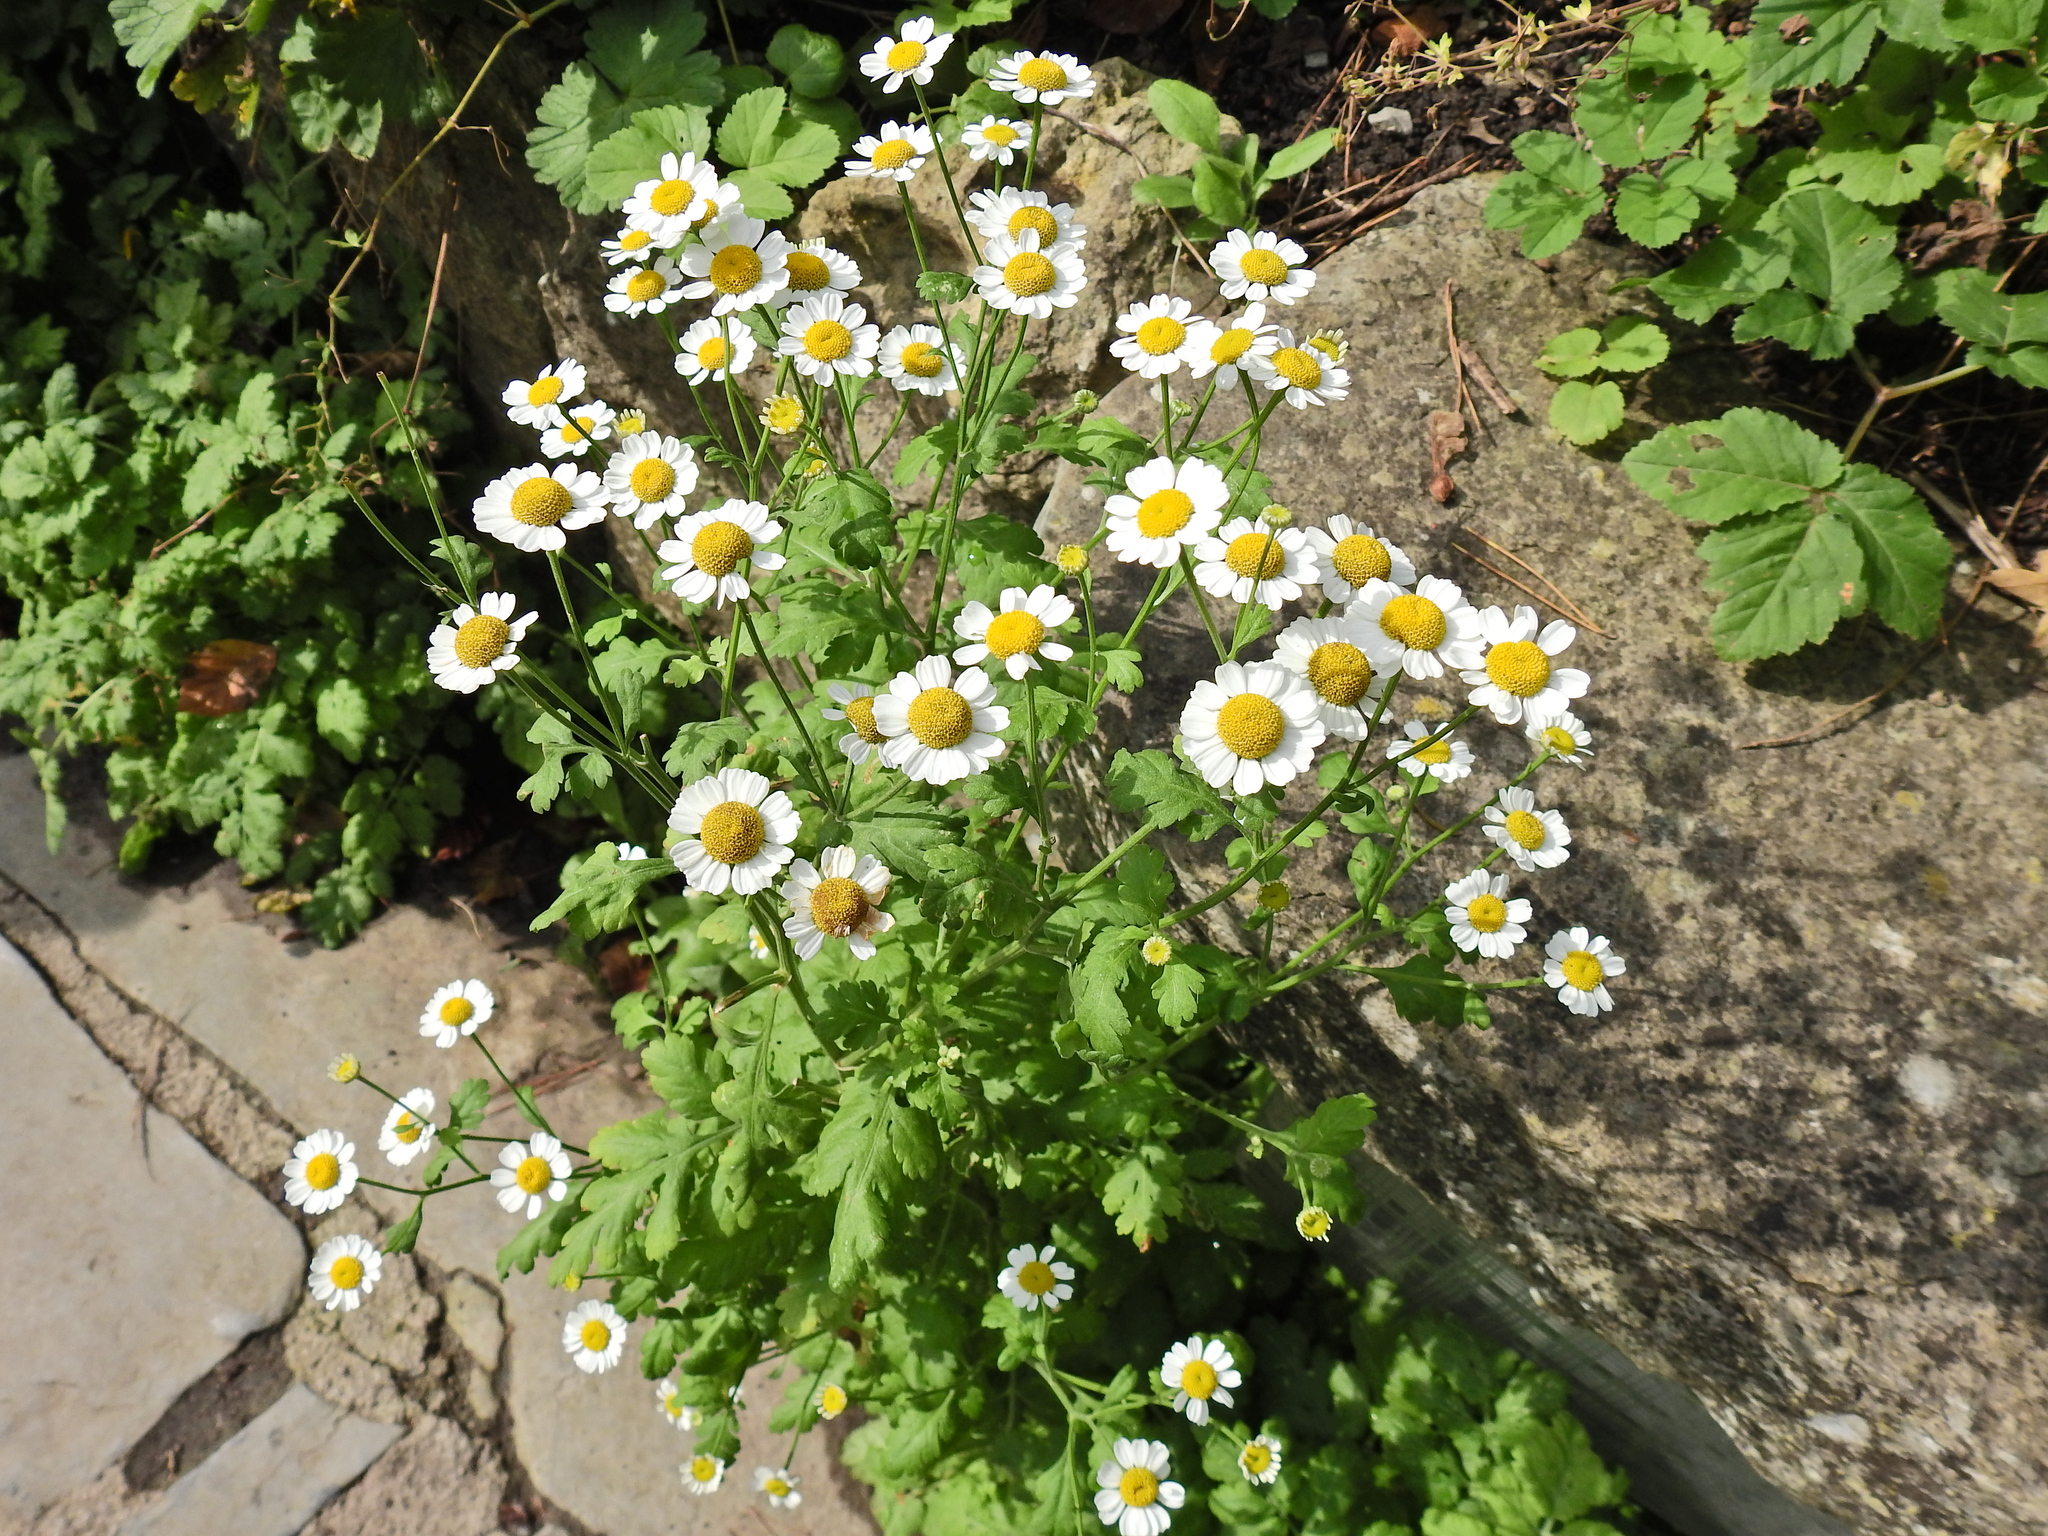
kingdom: Plantae
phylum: Tracheophyta
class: Magnoliopsida
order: Asterales
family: Asteraceae
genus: Tanacetum
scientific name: Tanacetum parthenium
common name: Feverfew
